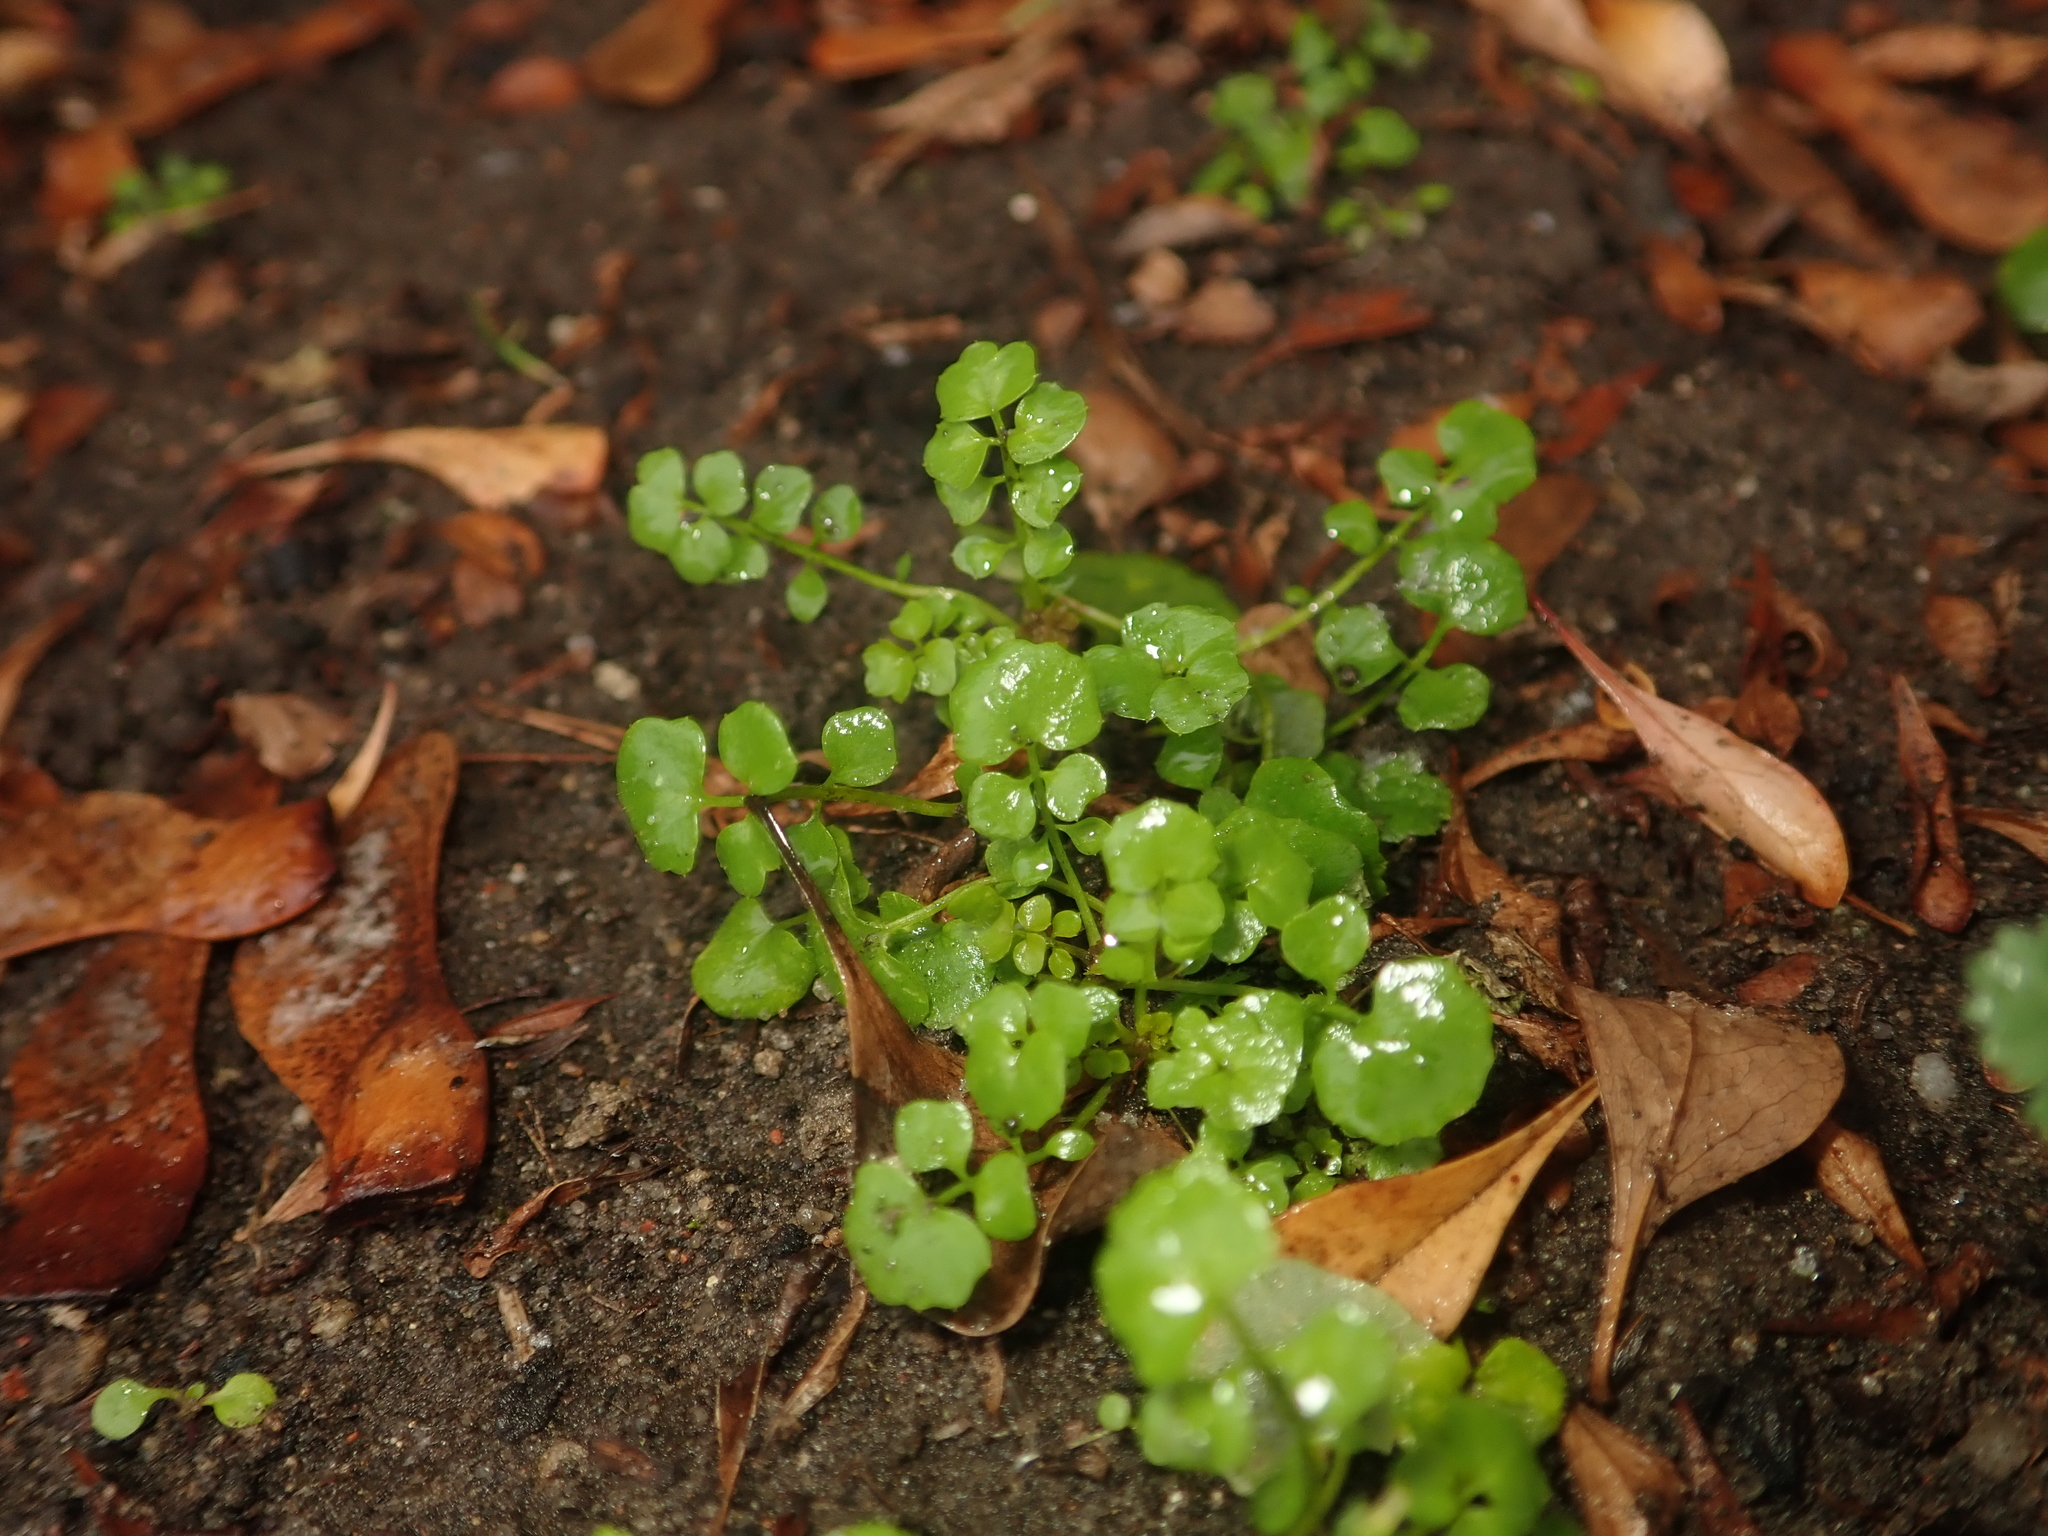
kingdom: Plantae
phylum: Tracheophyta
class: Magnoliopsida
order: Brassicales
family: Brassicaceae
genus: Cardamine
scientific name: Cardamine hirsuta
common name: Hairy bittercress
